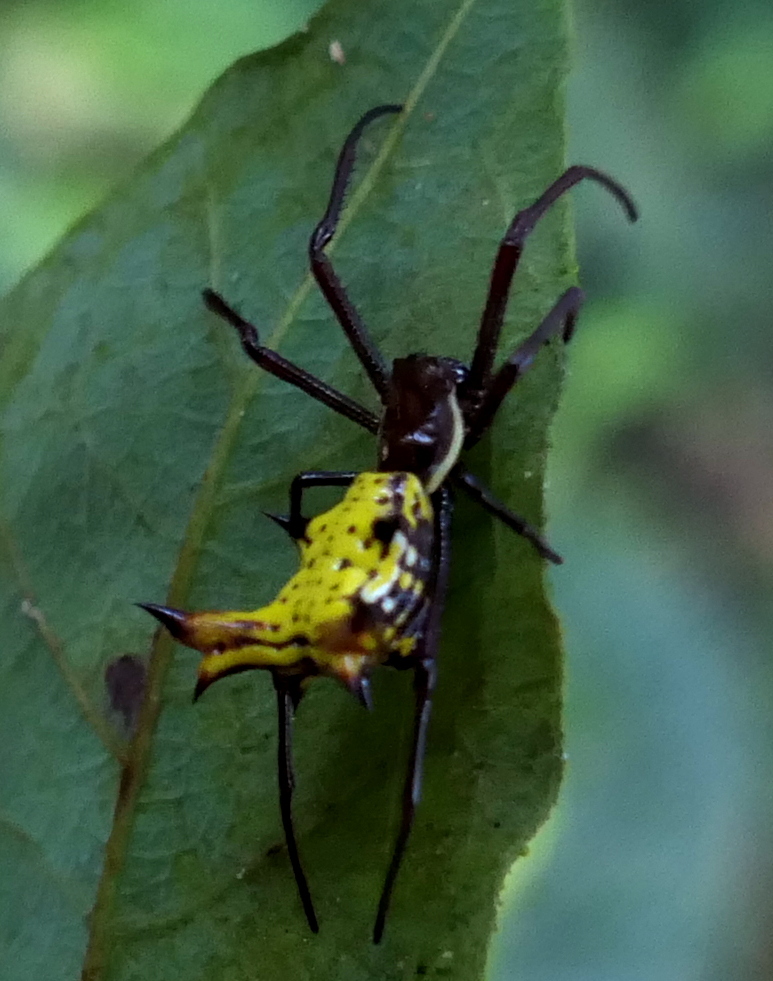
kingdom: Animalia
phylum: Arthropoda
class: Arachnida
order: Araneae
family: Araneidae
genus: Micrathena
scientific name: Micrathena fissispina
